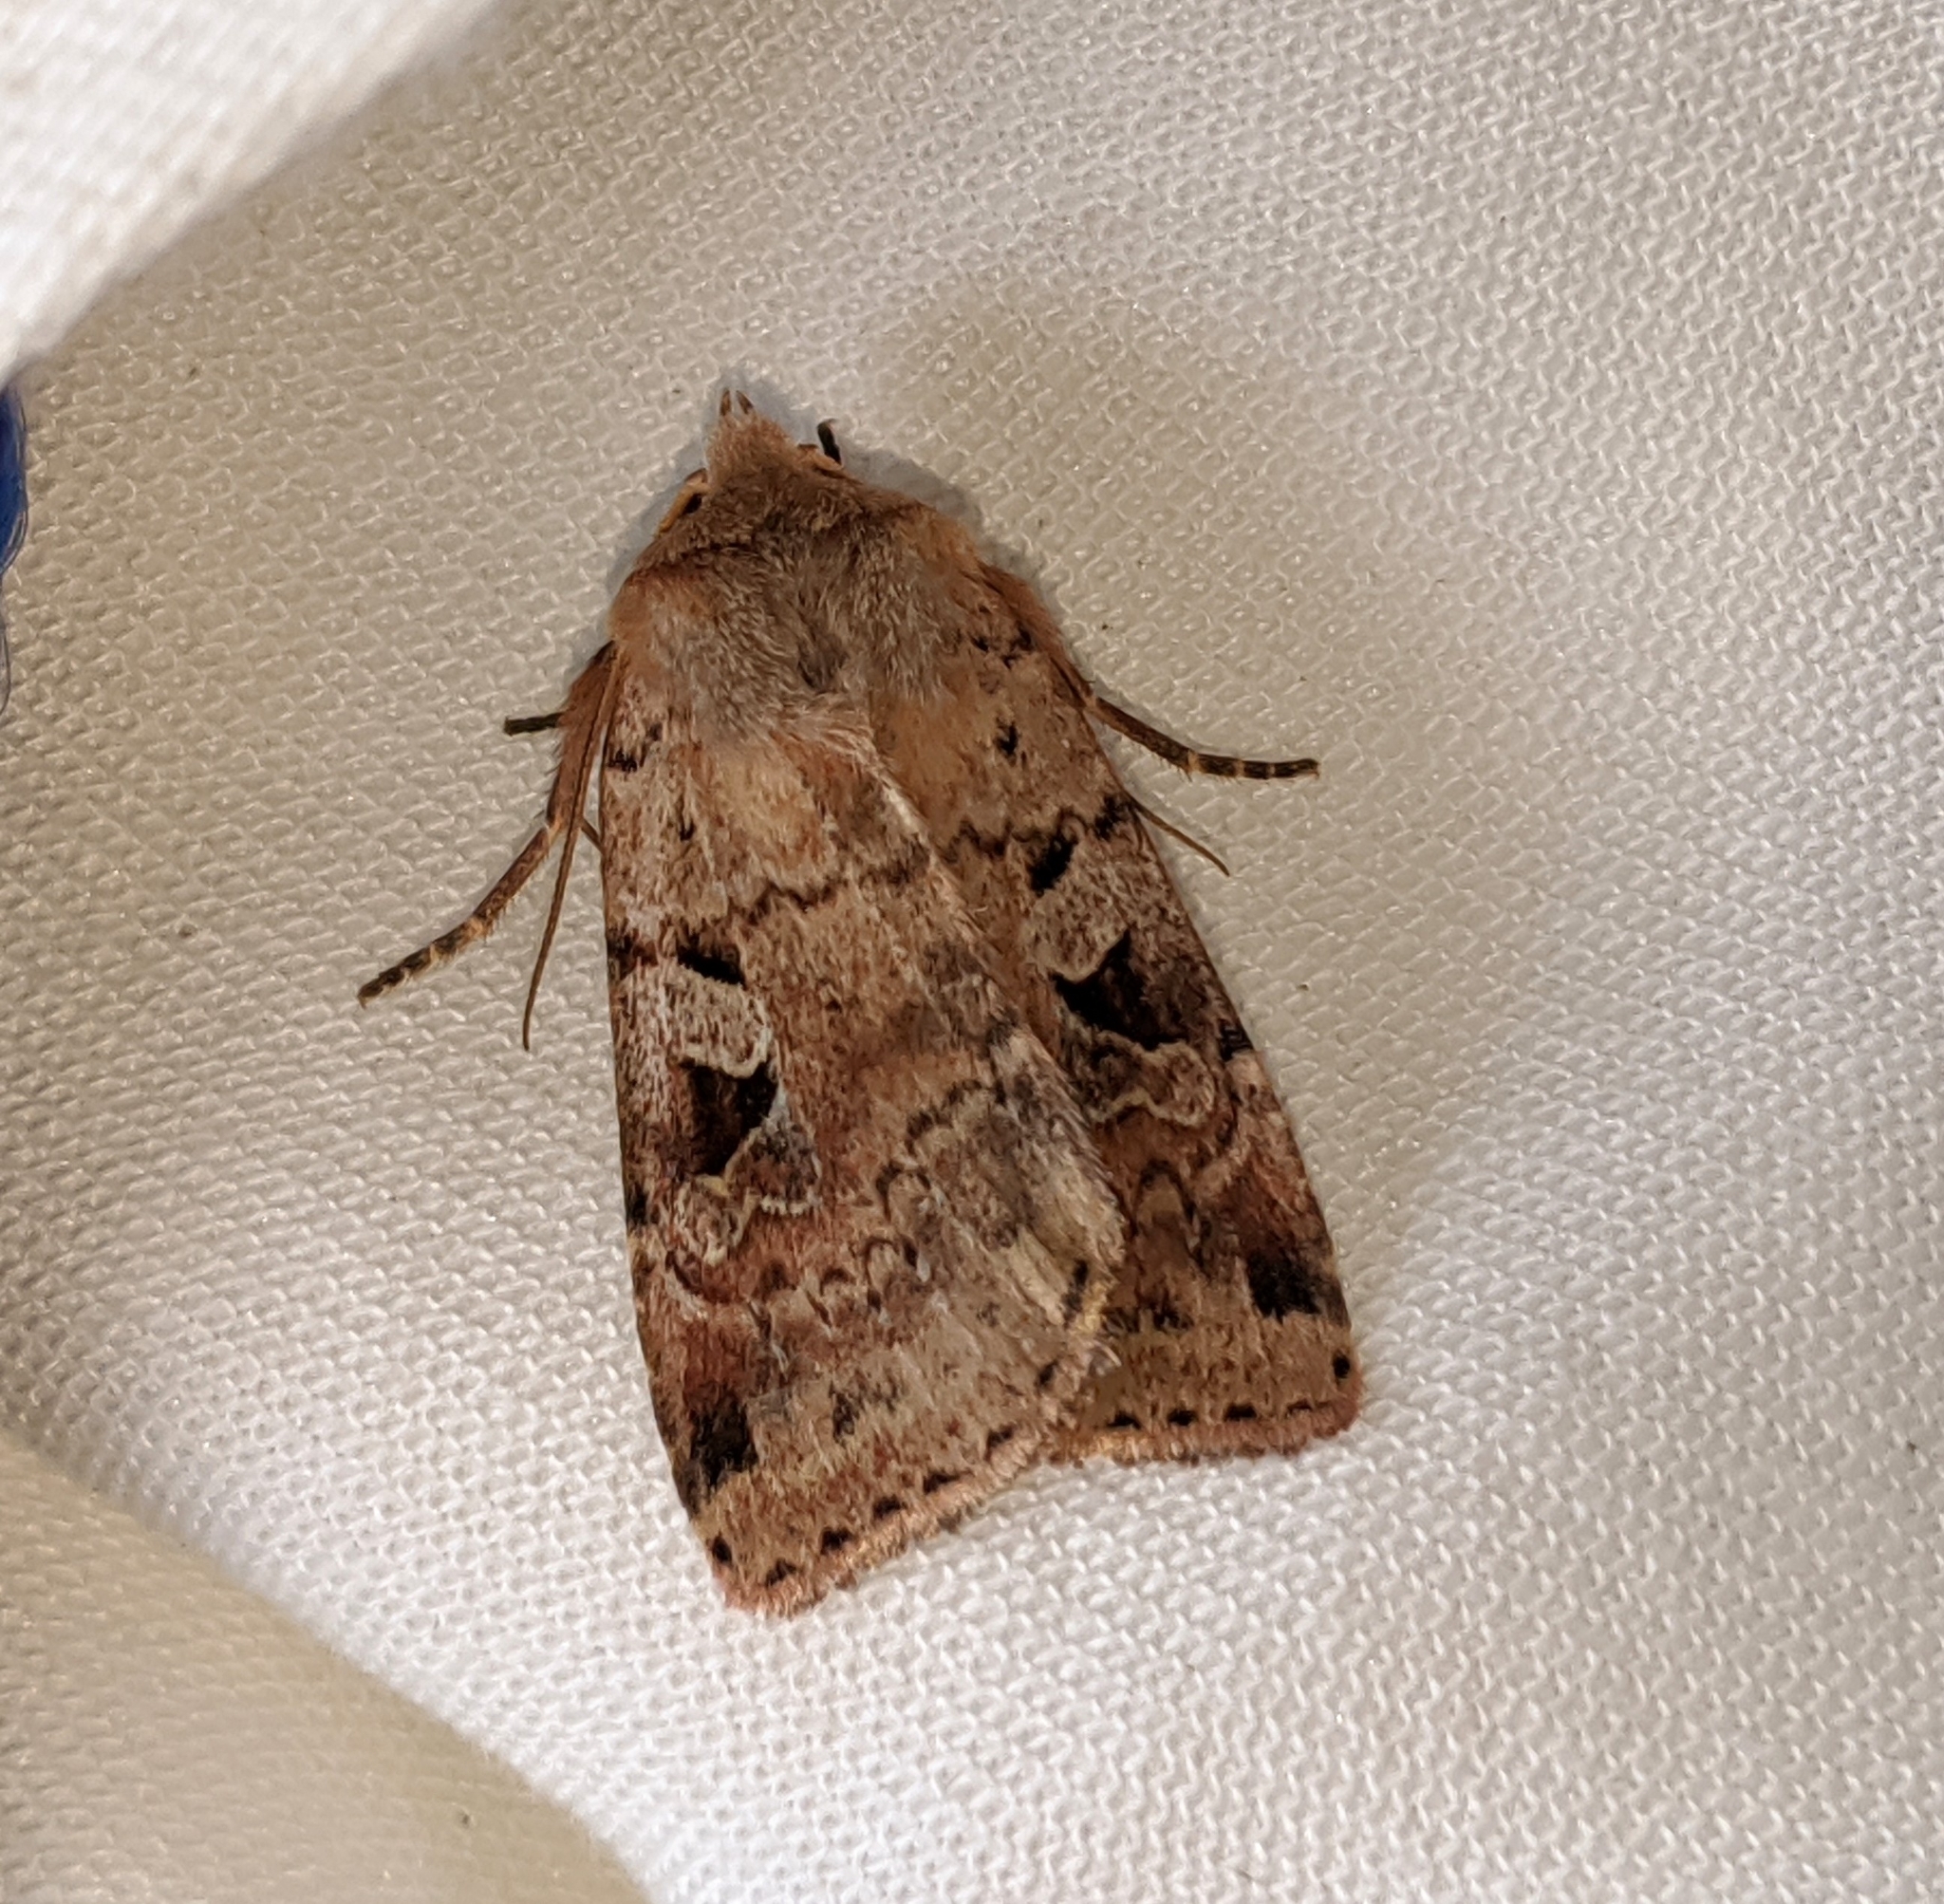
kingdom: Animalia
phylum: Arthropoda
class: Insecta
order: Lepidoptera
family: Noctuidae
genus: Diarsia
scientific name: Diarsia esurialis
